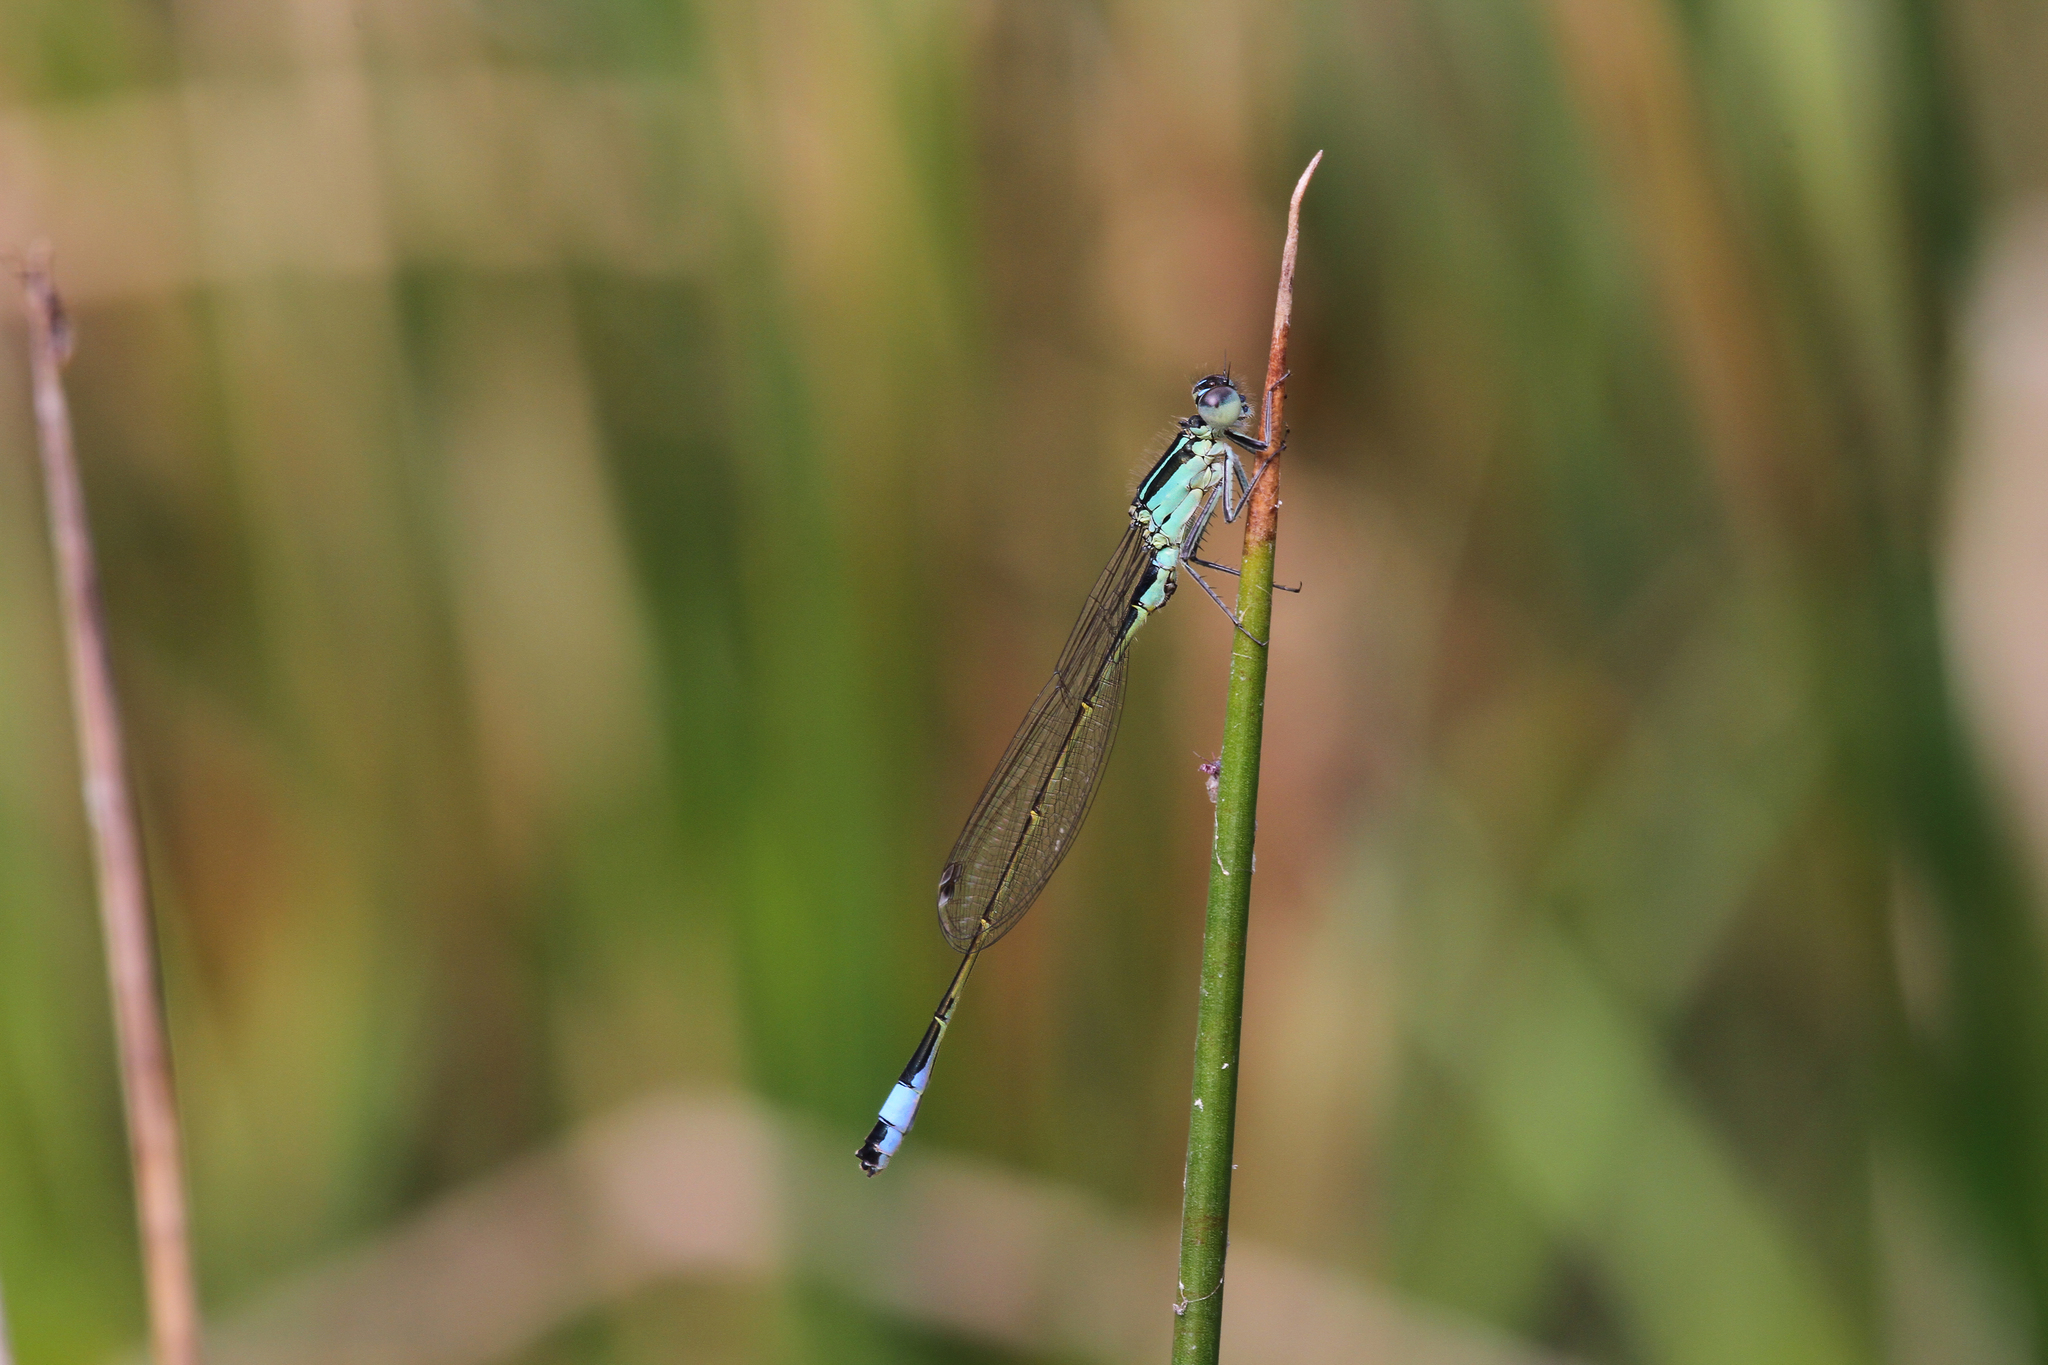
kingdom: Animalia
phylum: Arthropoda
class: Insecta
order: Odonata
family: Coenagrionidae
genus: Ischnura
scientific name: Ischnura elegans
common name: Blue-tailed damselfly
